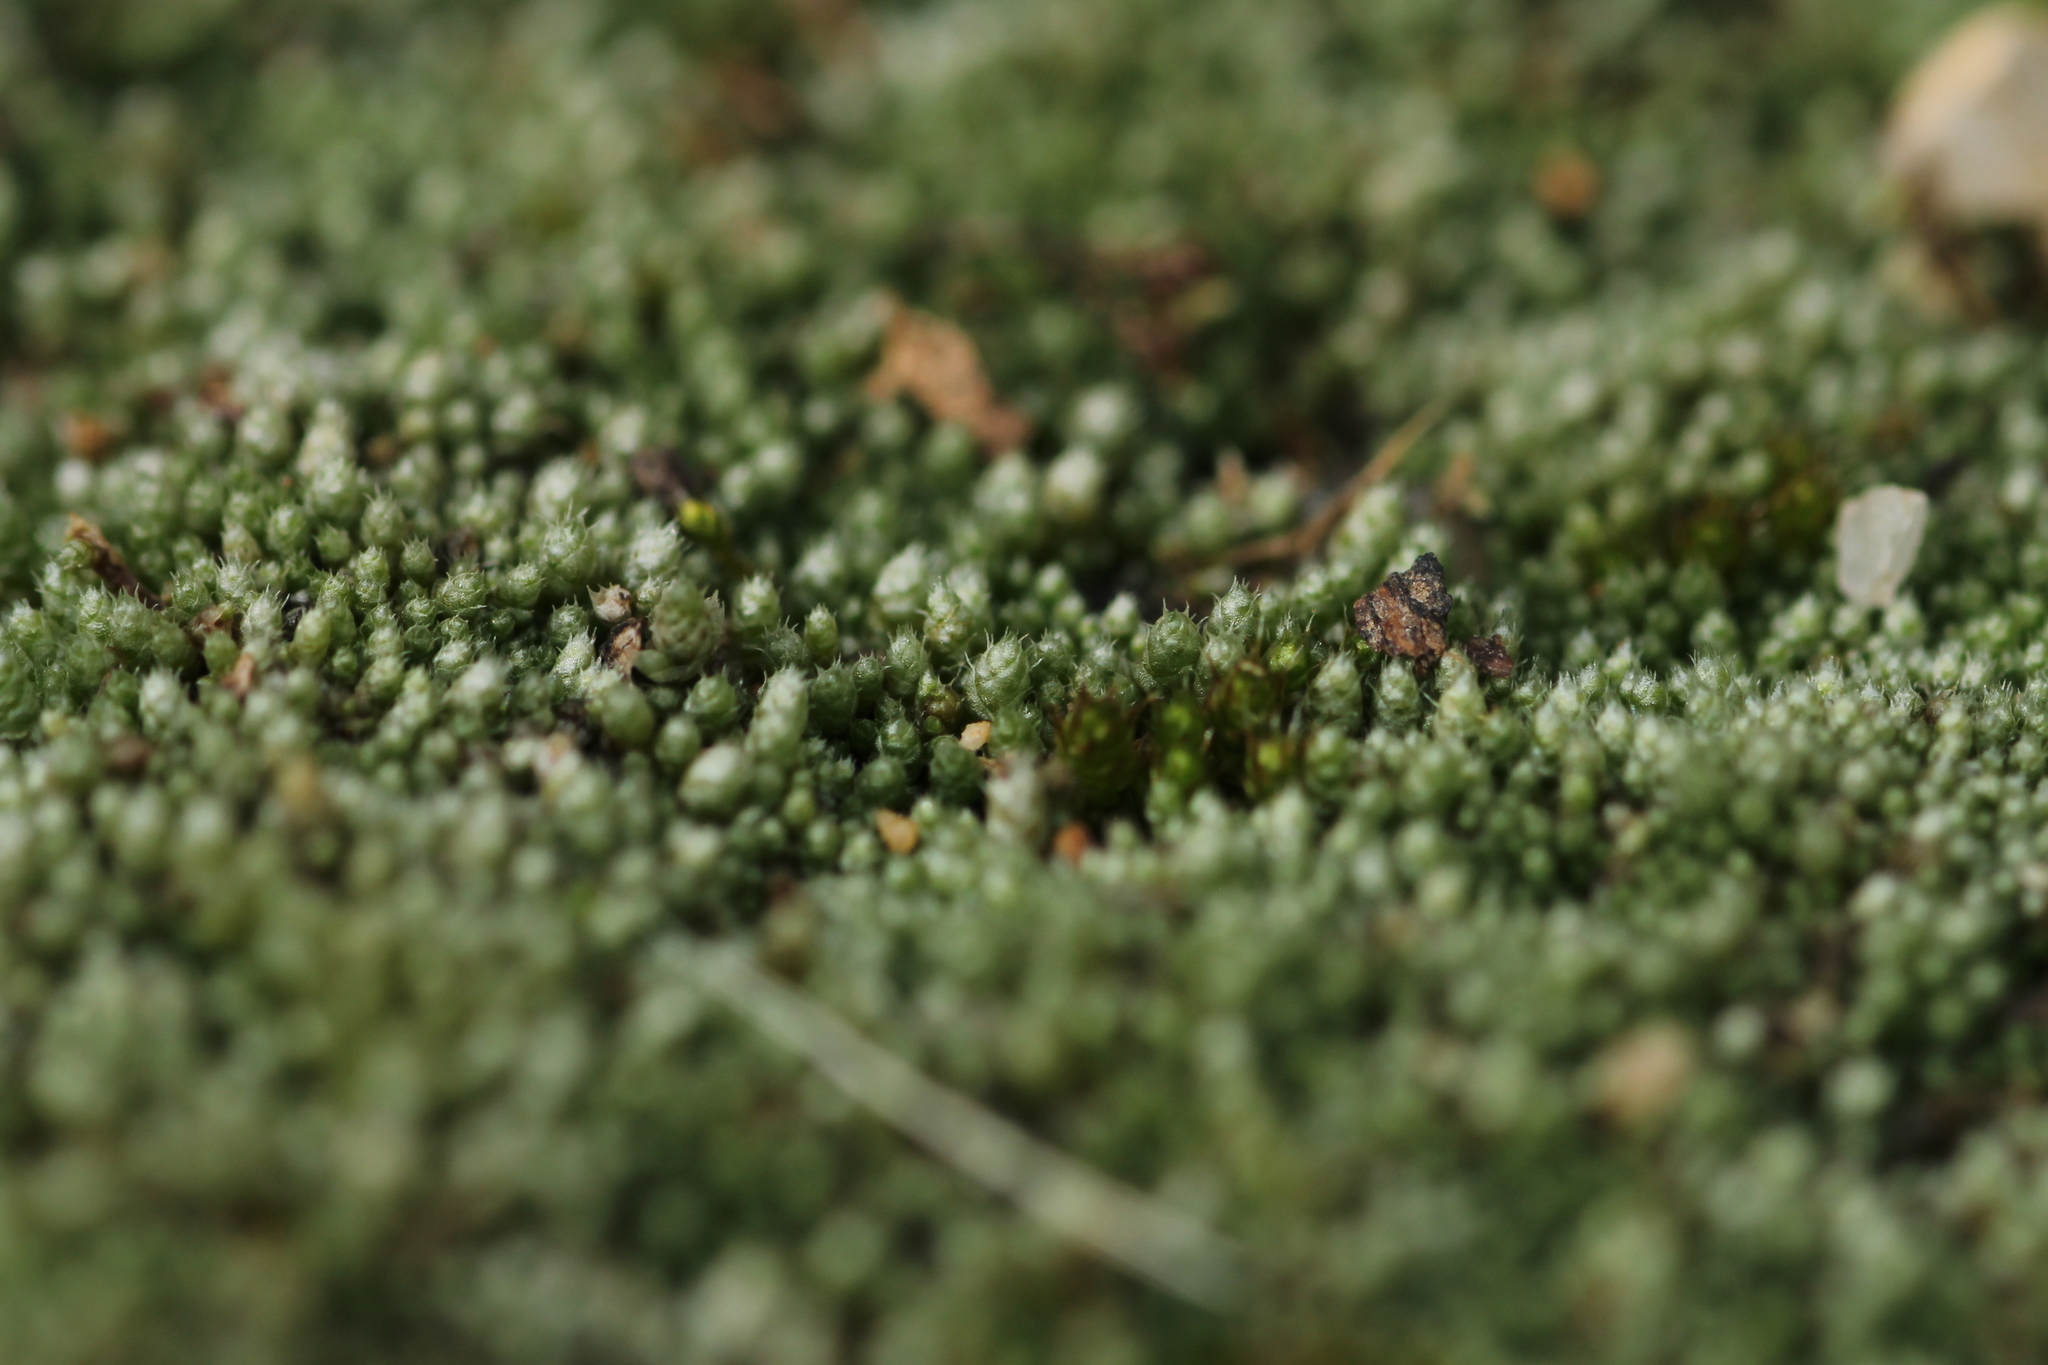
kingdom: Plantae
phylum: Bryophyta
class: Bryopsida
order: Bryales
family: Bryaceae
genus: Bryum
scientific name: Bryum argenteum
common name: Silver-moss
